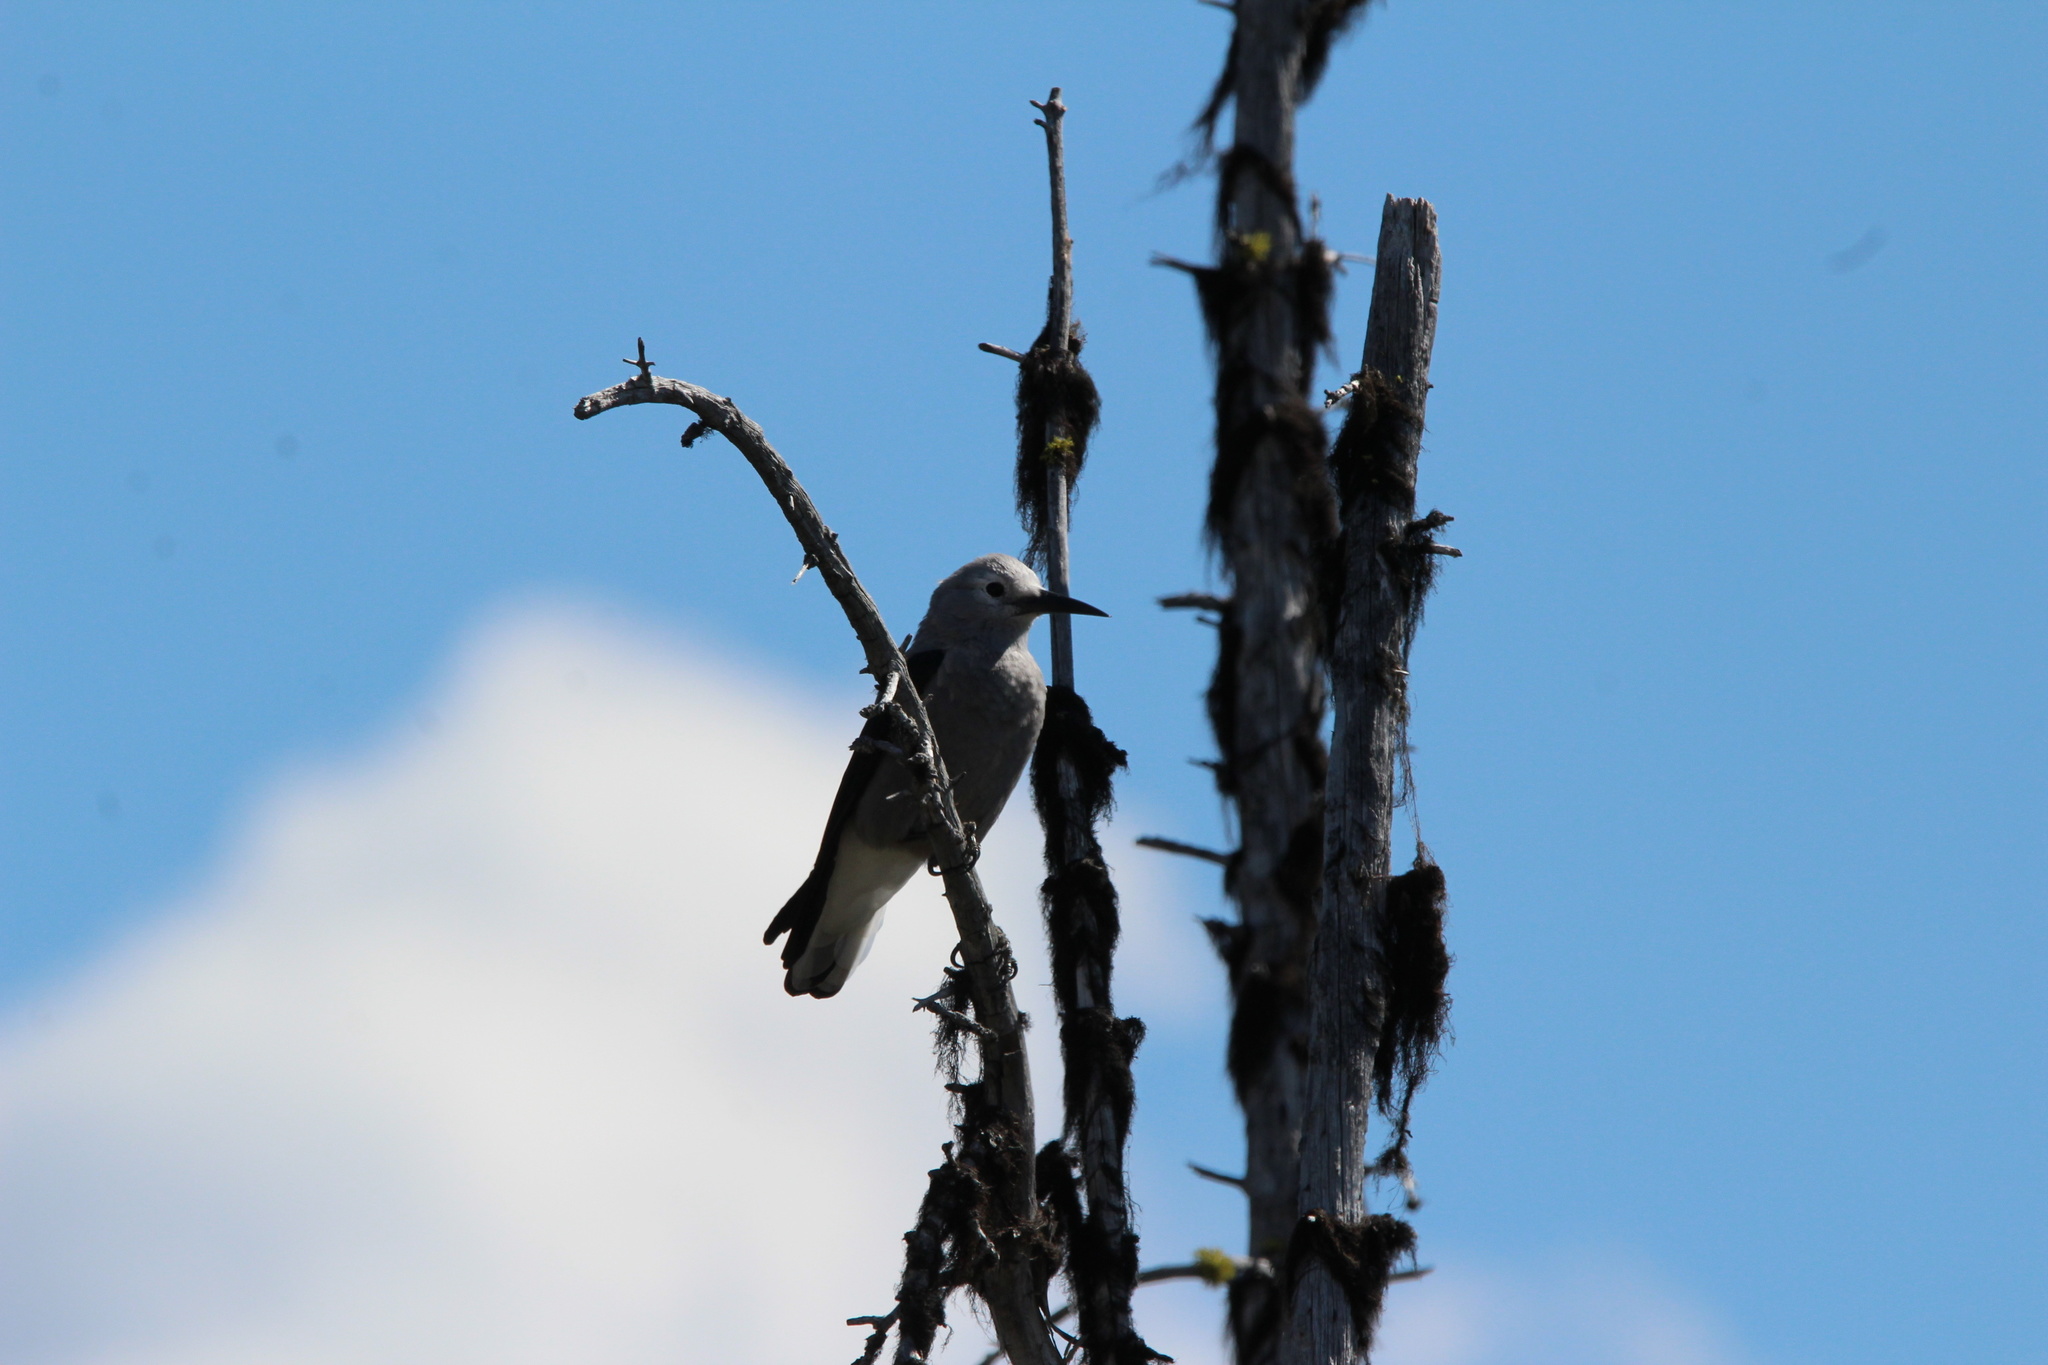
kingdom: Animalia
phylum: Chordata
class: Aves
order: Passeriformes
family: Corvidae
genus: Nucifraga
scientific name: Nucifraga columbiana
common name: Clark's nutcracker
